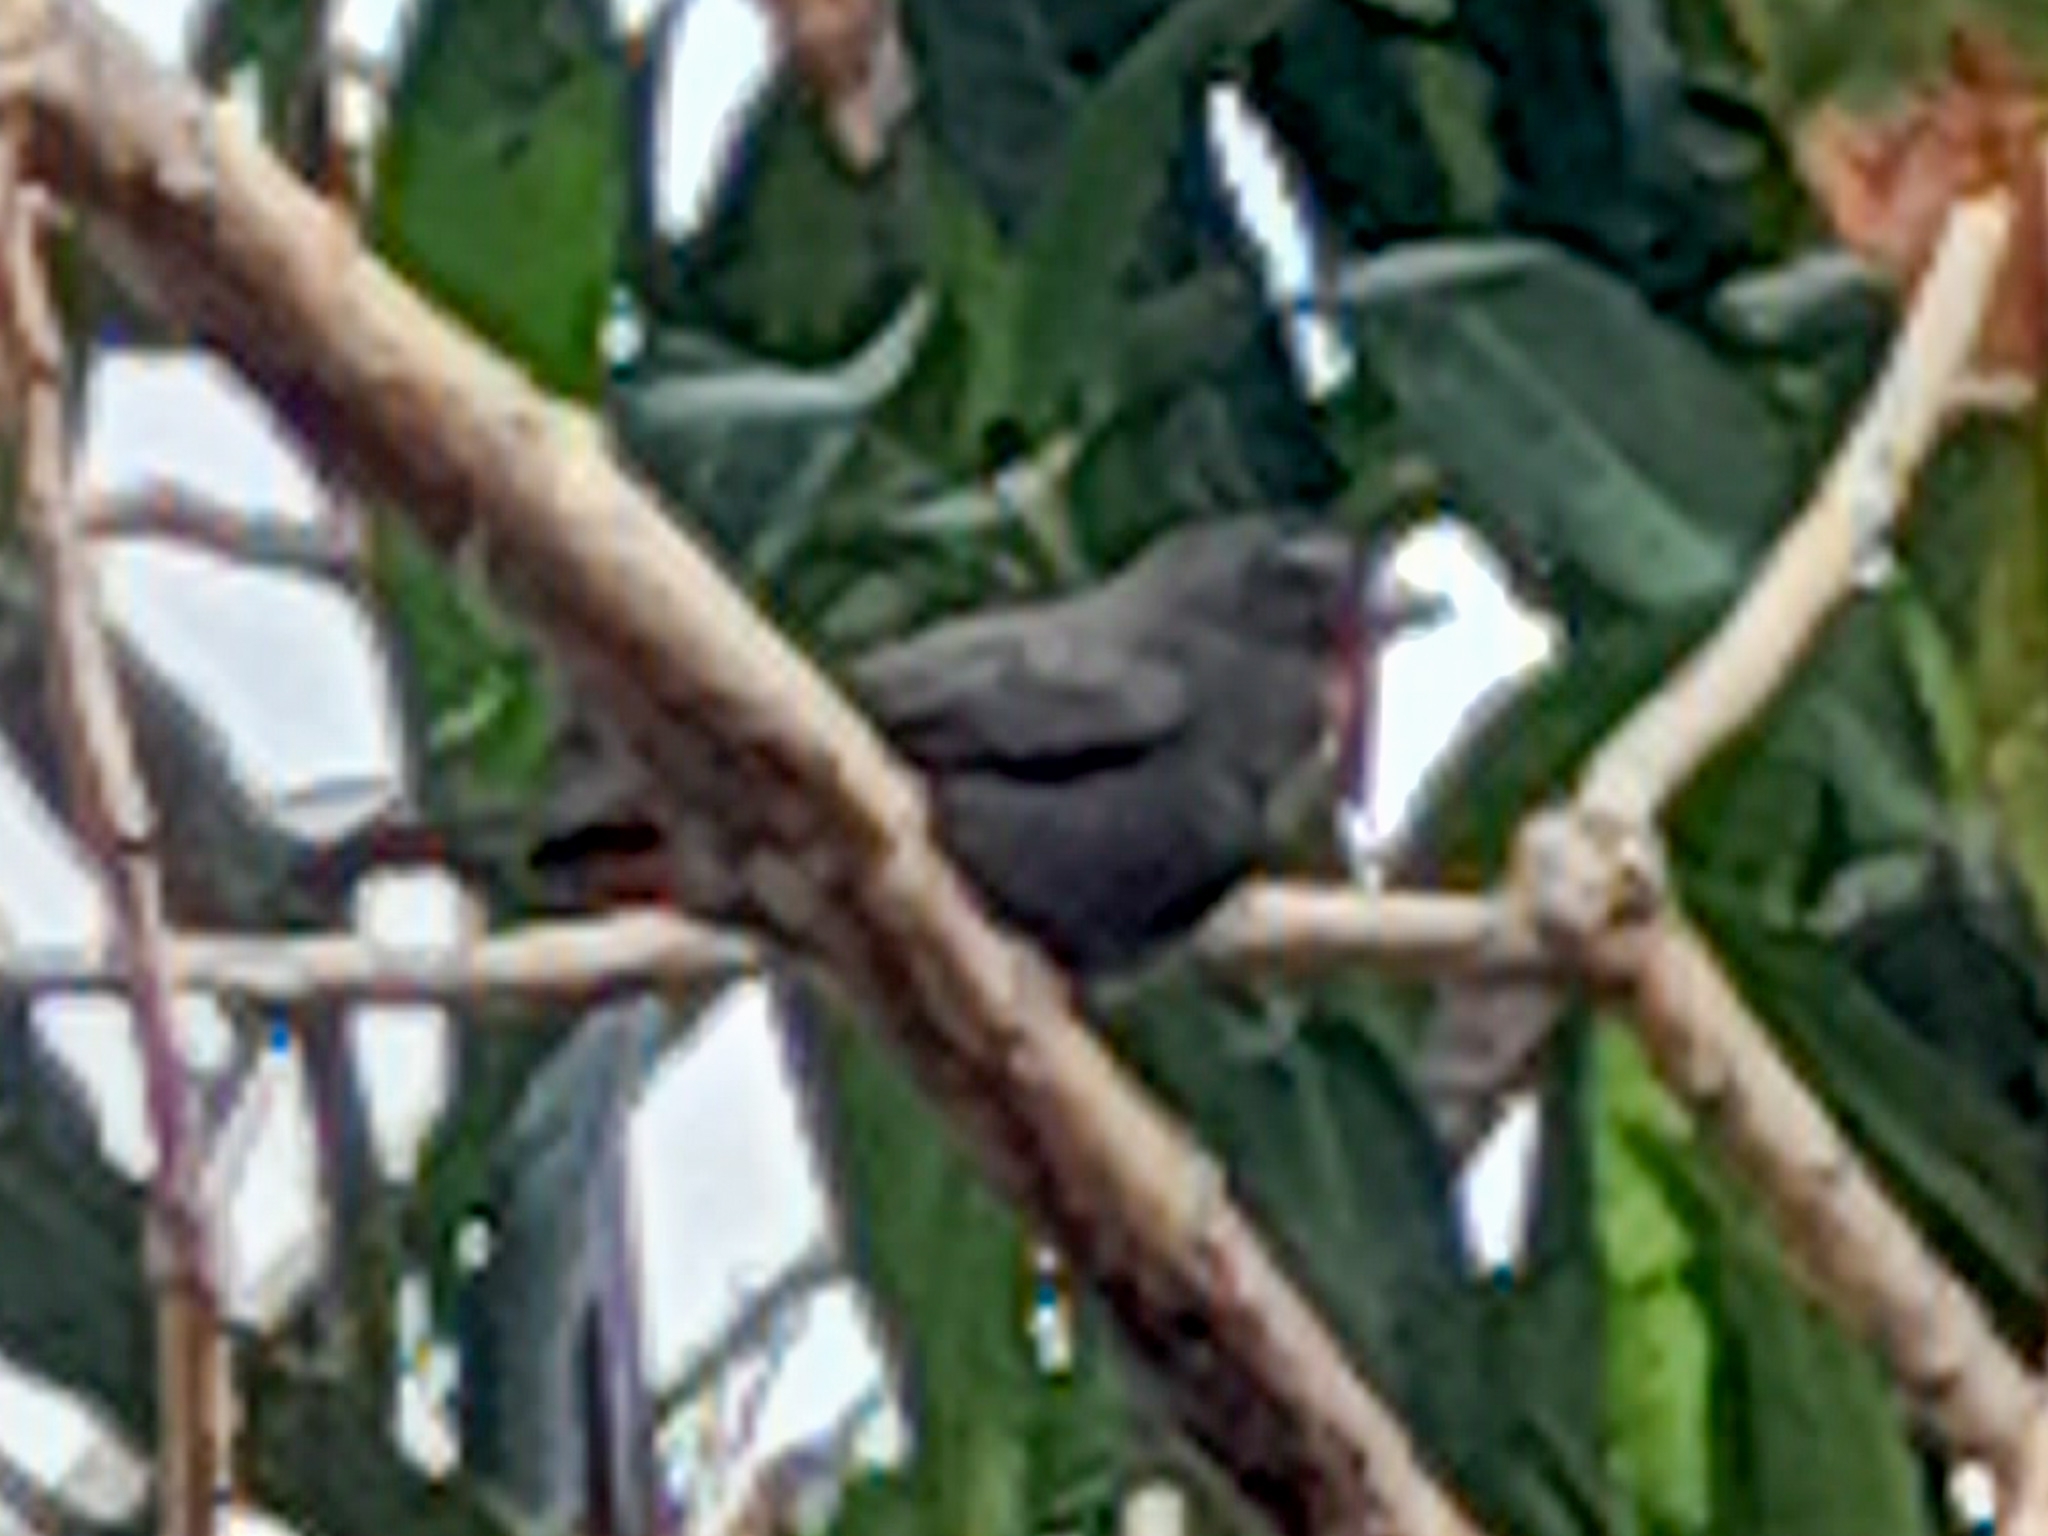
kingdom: Animalia
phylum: Chordata
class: Aves
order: Passeriformes
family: Thraupidae
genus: Loxigilla
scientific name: Loxigilla noctis
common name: Lesser antillean bullfinch
